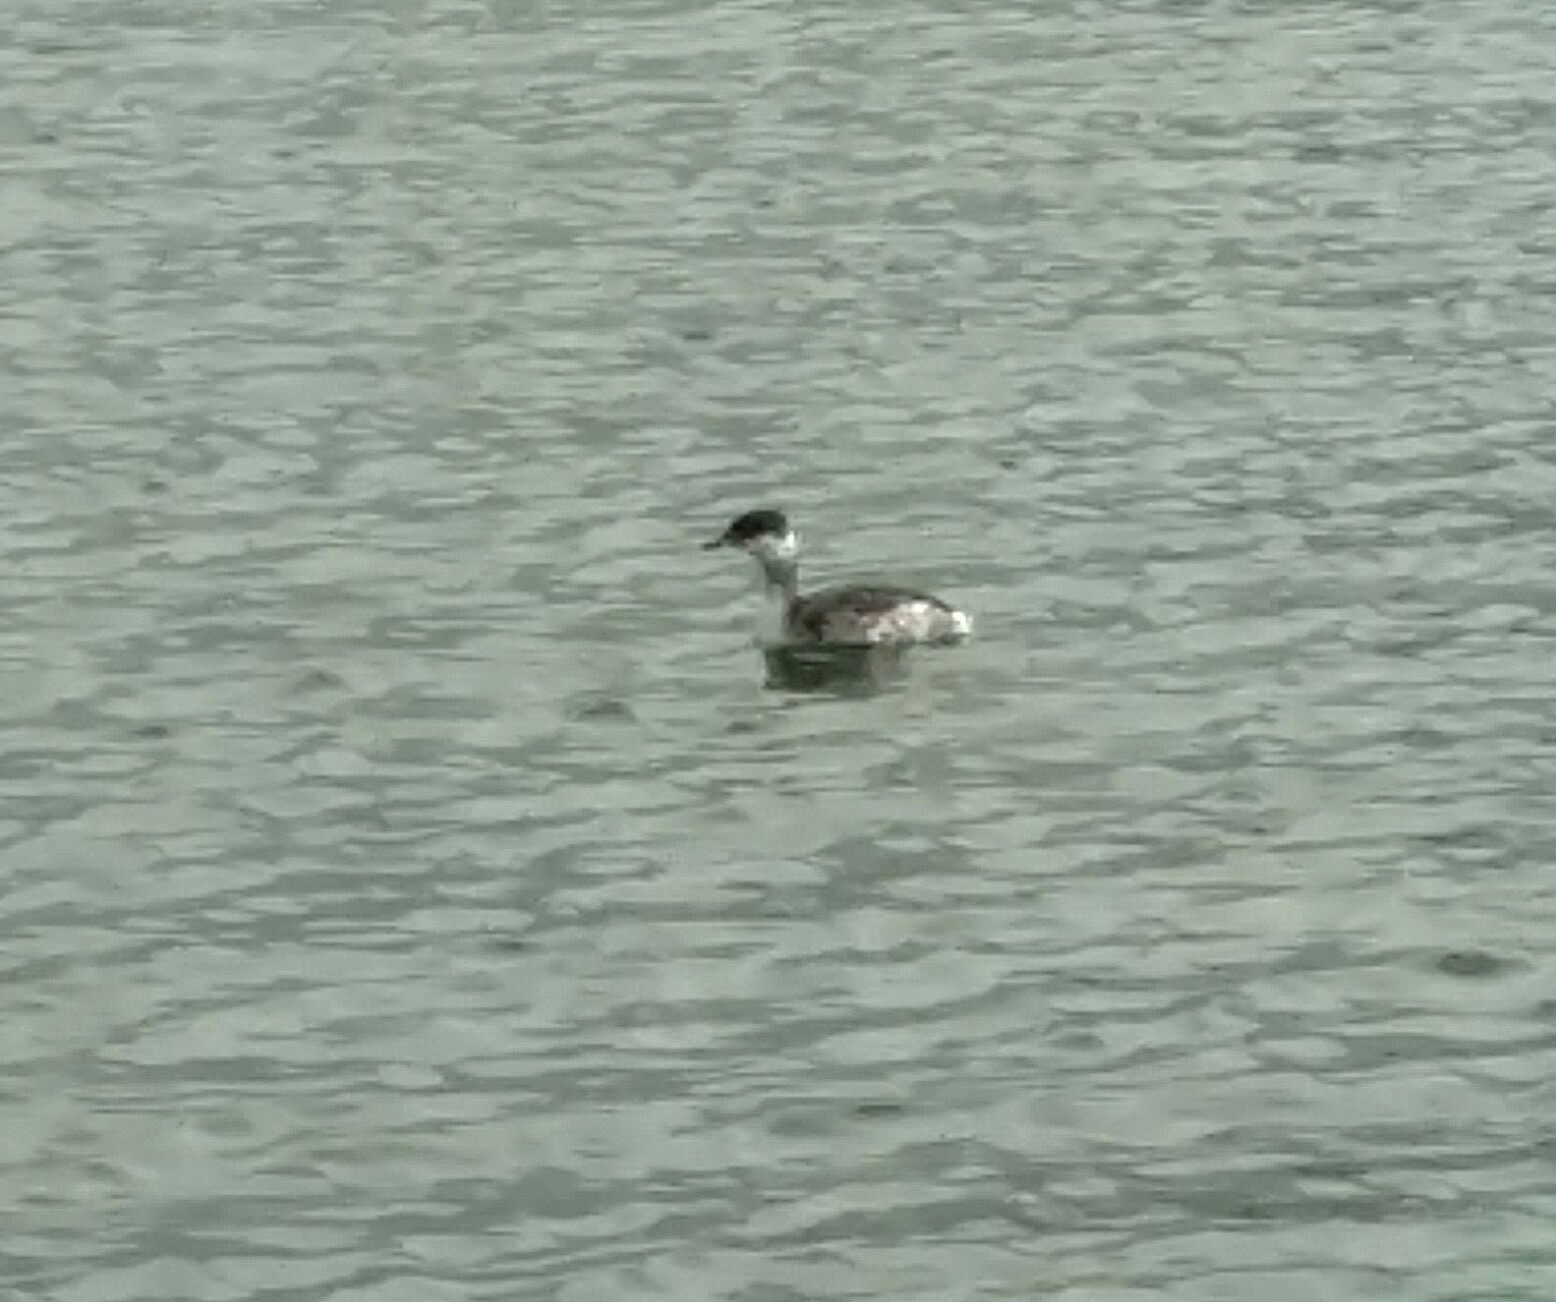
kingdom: Animalia
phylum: Chordata
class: Aves
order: Podicipediformes
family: Podicipedidae
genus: Podiceps
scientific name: Podiceps auritus
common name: Horned grebe
